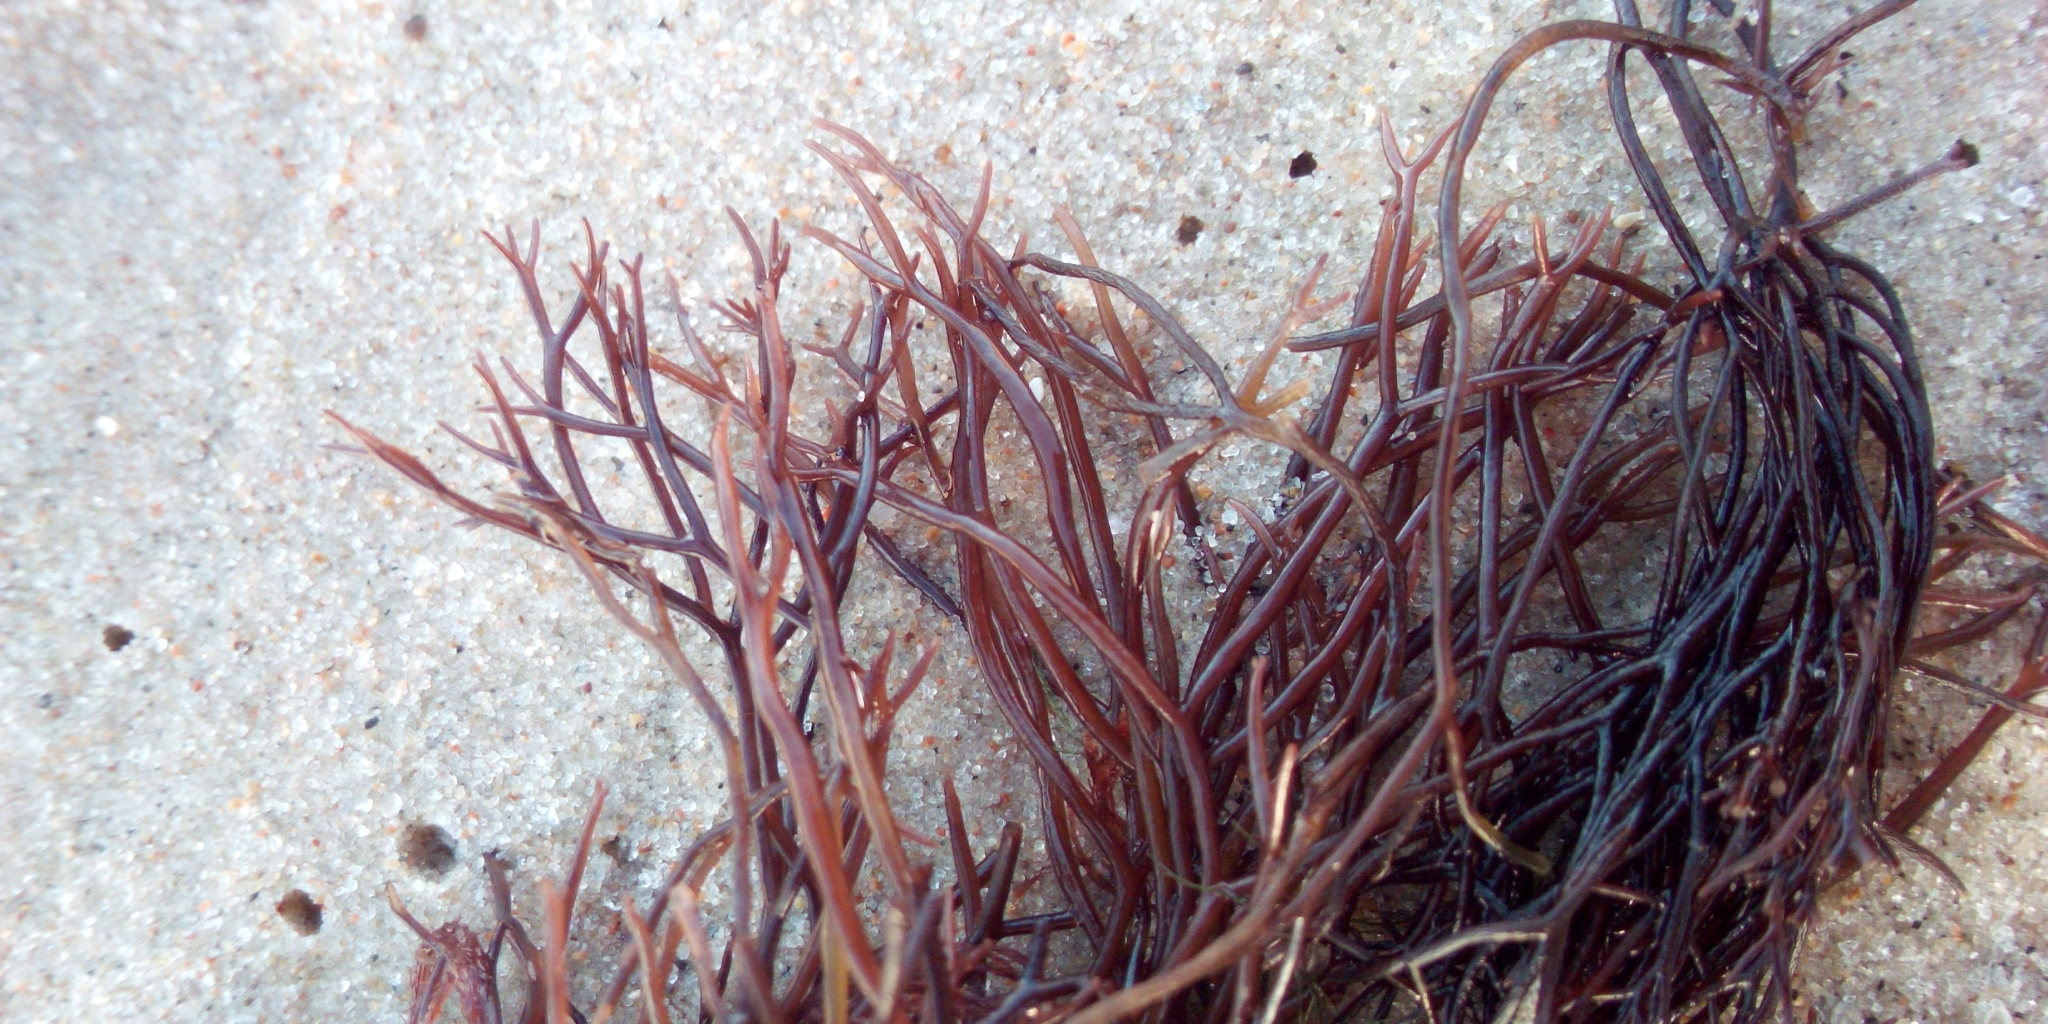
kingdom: Plantae
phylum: Rhodophyta
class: Florideophyceae
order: Gigartinales
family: Furcellariaceae
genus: Furcellaria
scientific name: Furcellaria lumbricalis
